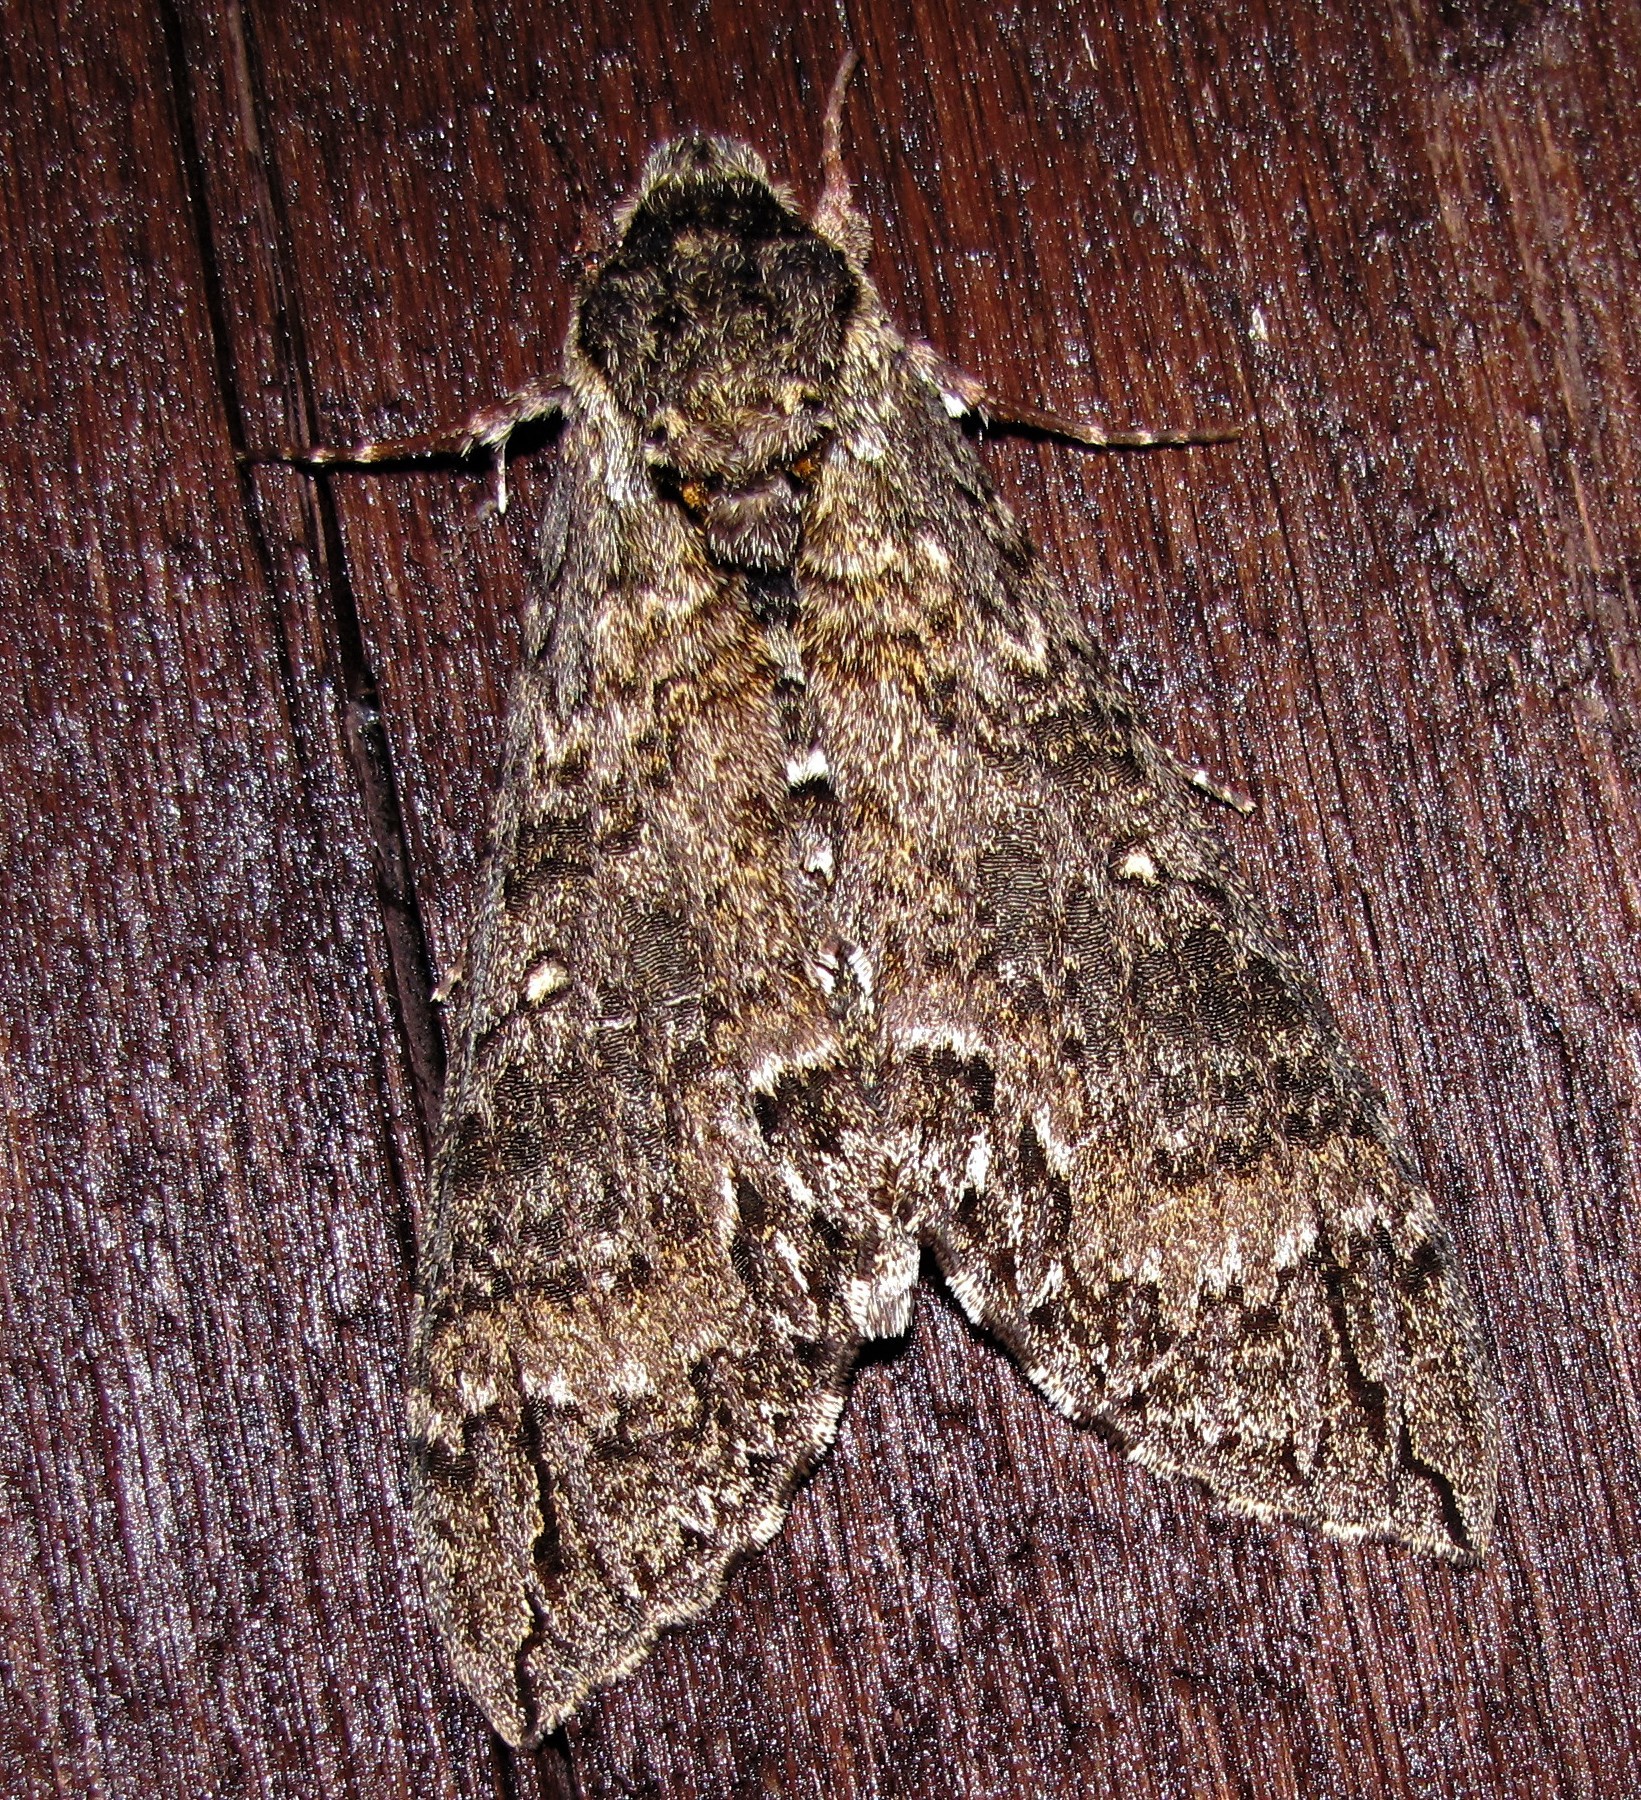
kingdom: Animalia
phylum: Arthropoda
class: Insecta
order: Lepidoptera
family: Sphingidae
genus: Manduca
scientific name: Manduca diffissa
